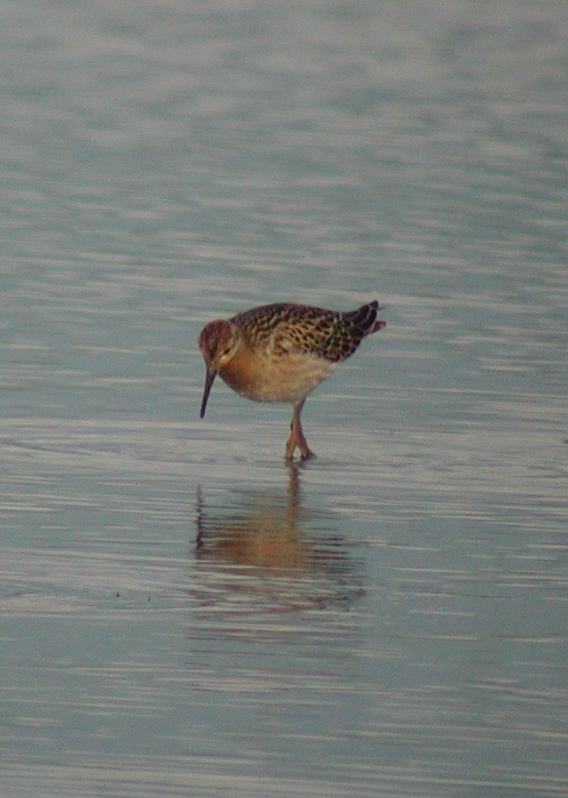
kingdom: Animalia
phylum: Chordata
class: Aves
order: Charadriiformes
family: Scolopacidae
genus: Calidris
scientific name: Calidris pugnax
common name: Ruff
